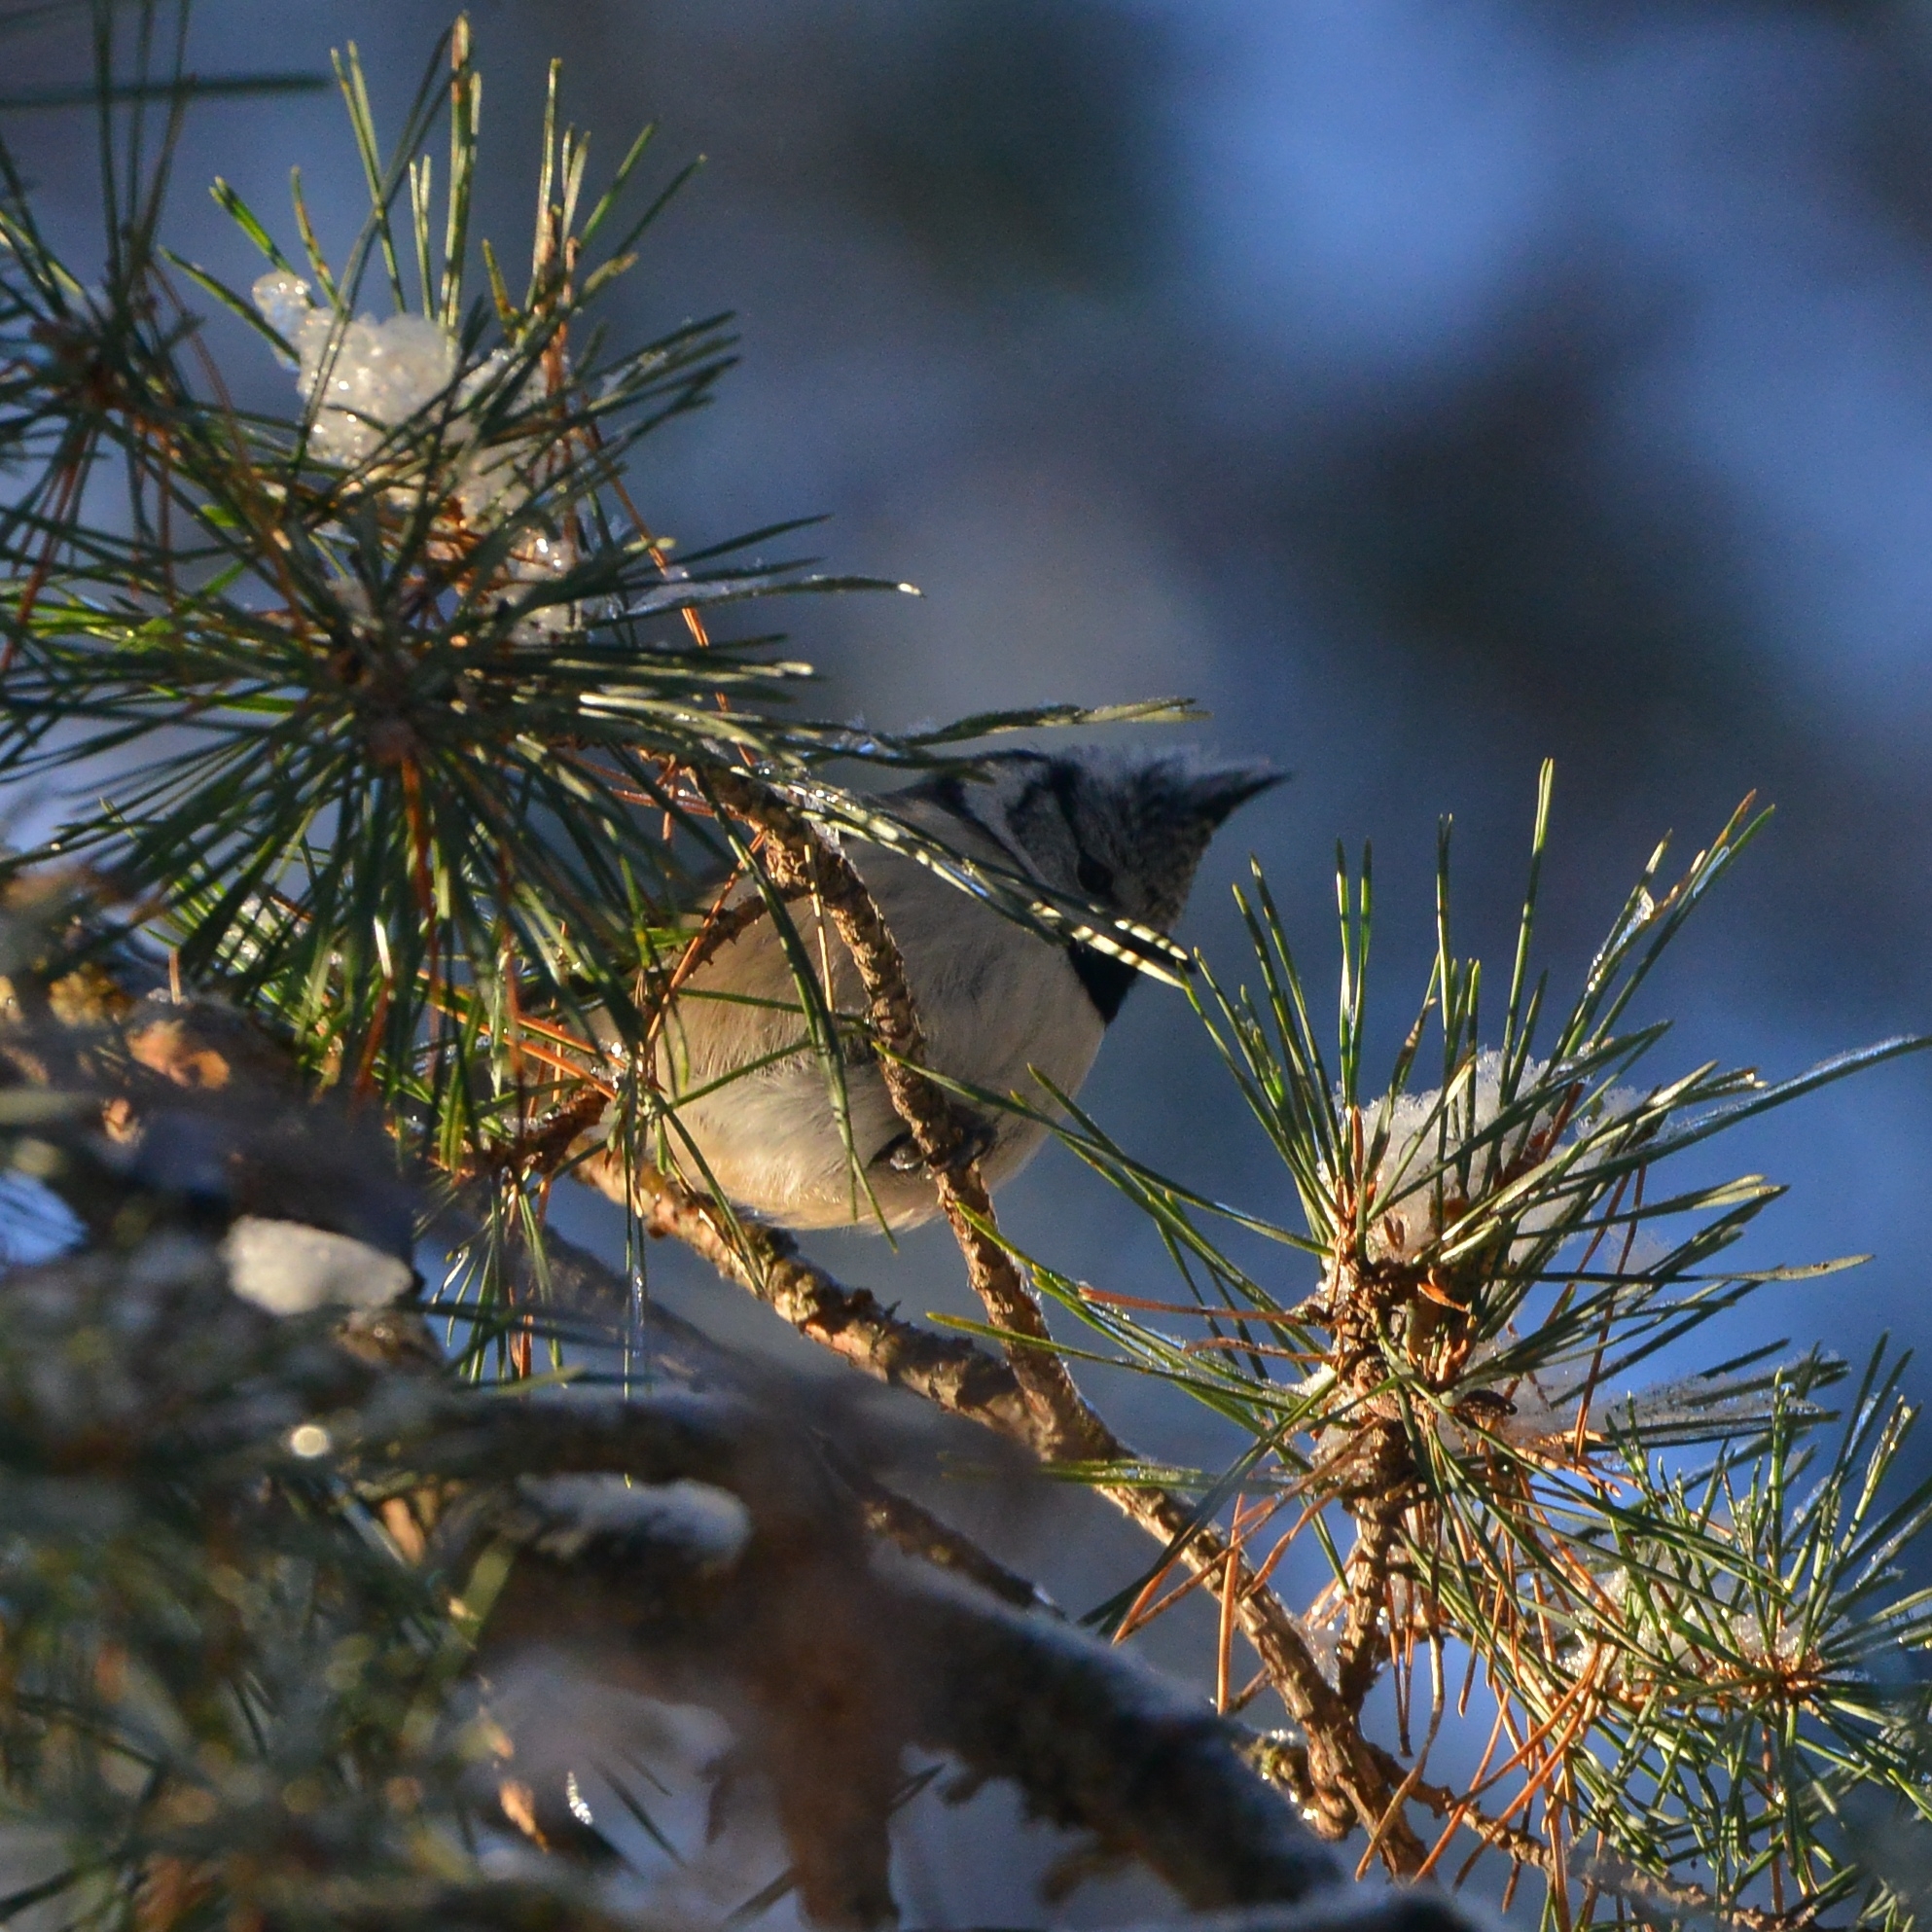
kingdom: Animalia
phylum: Chordata
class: Aves
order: Passeriformes
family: Paridae
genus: Lophophanes
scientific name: Lophophanes cristatus
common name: European crested tit
